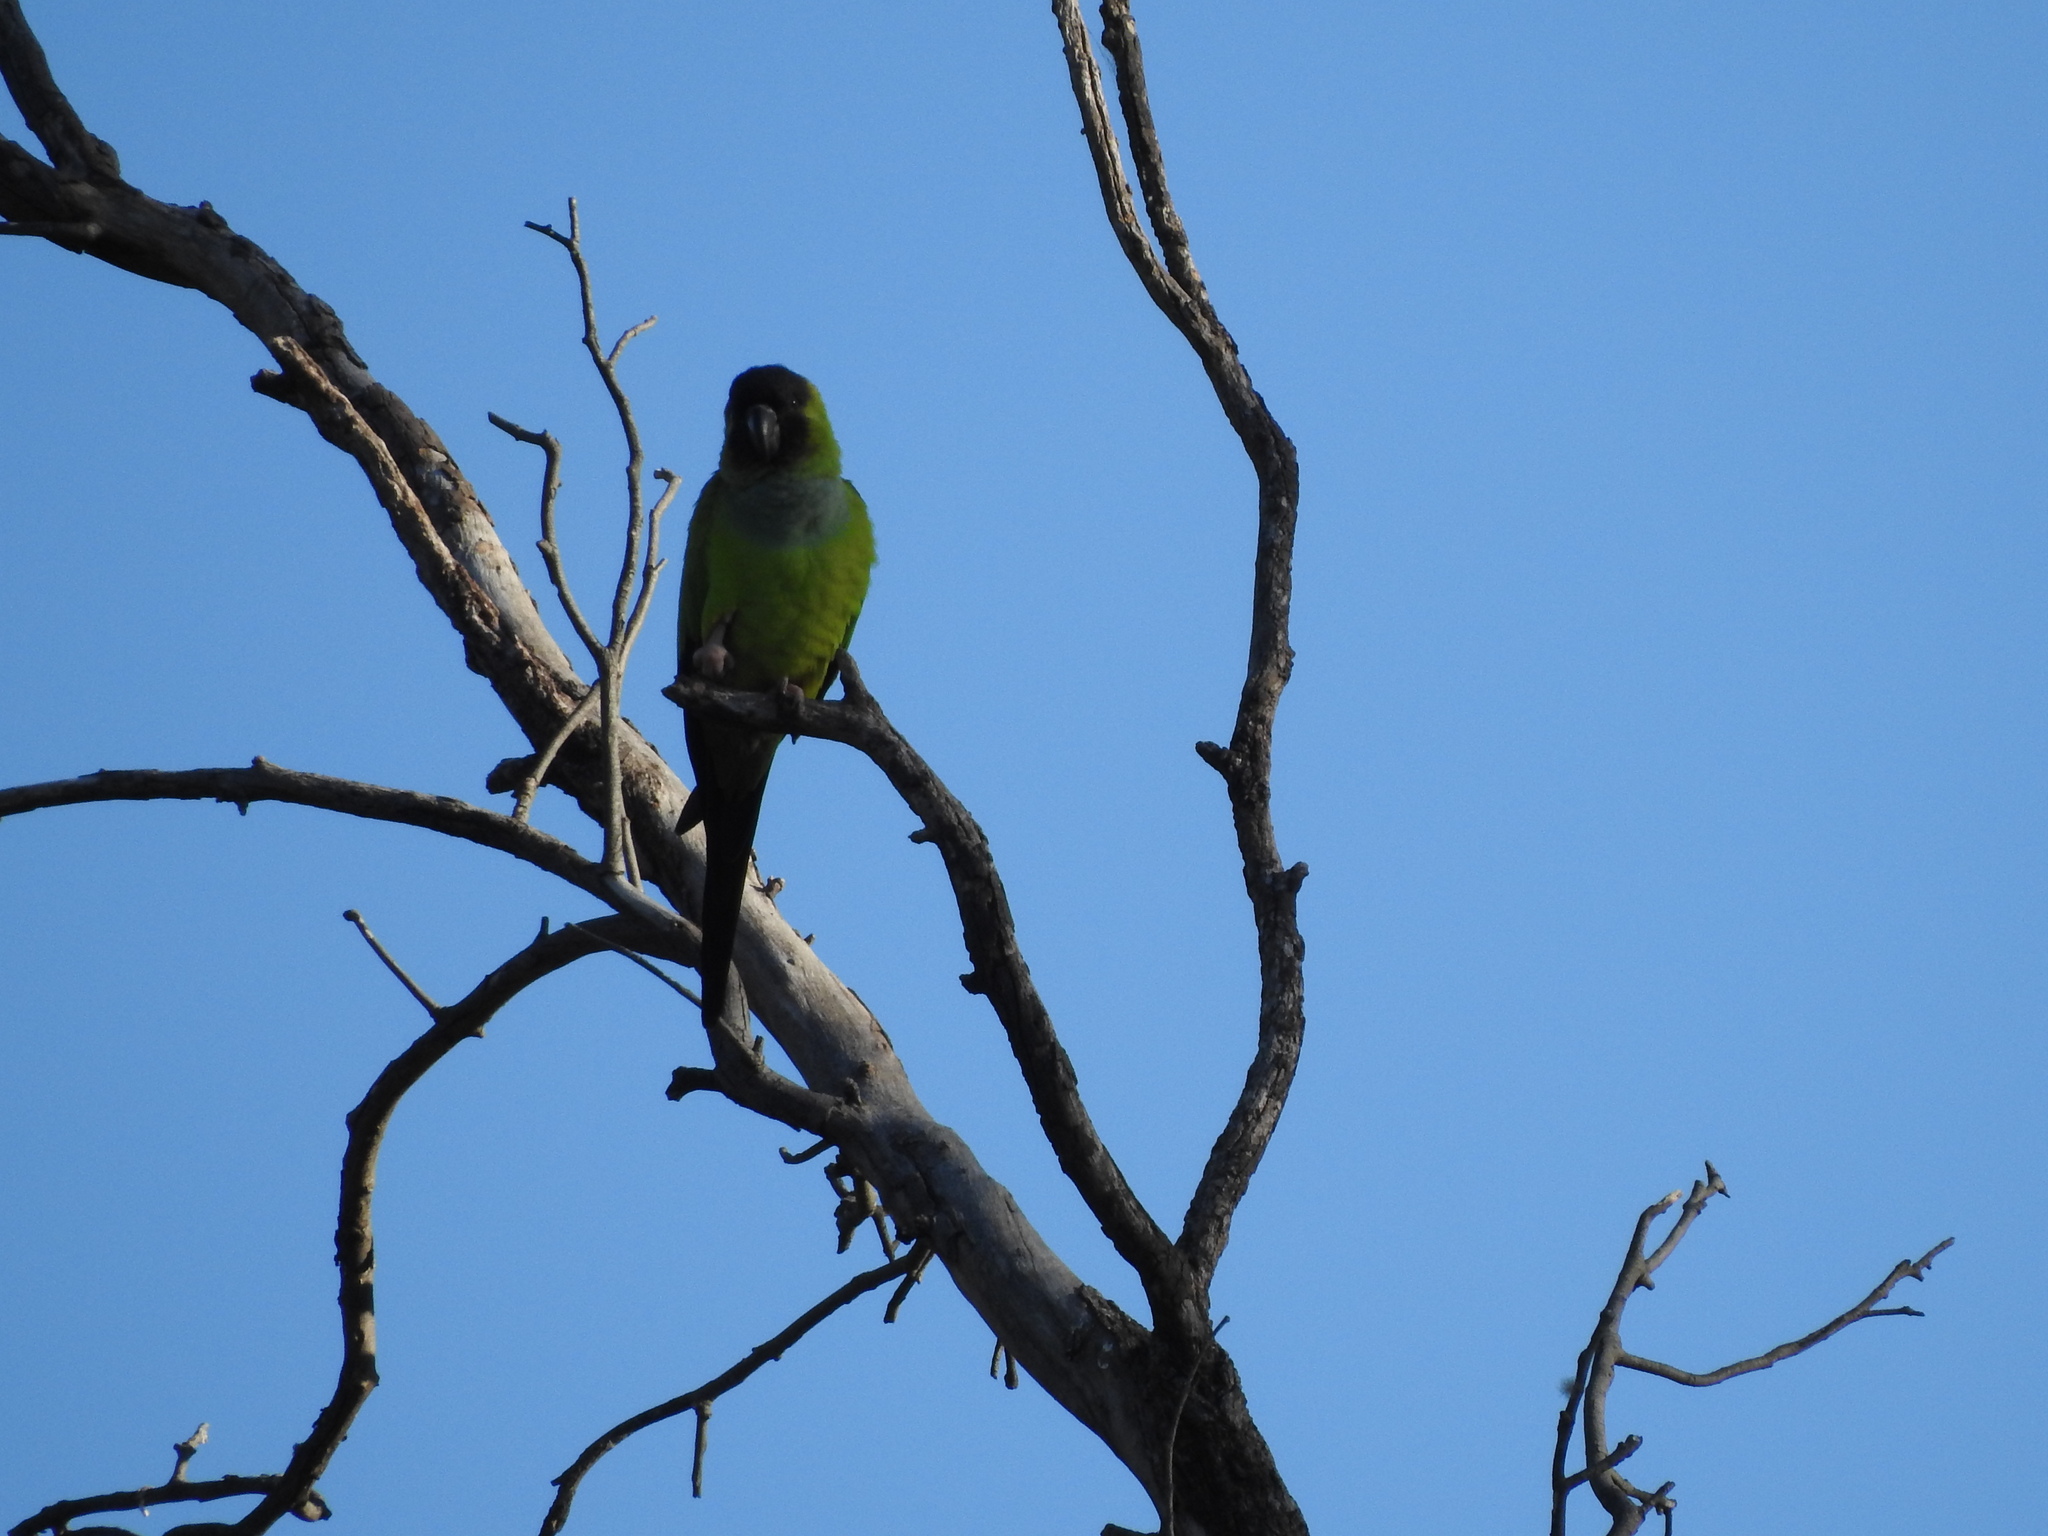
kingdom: Animalia
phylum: Chordata
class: Aves
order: Psittaciformes
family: Psittacidae
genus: Nandayus
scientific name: Nandayus nenday
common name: Nanday parakeet
